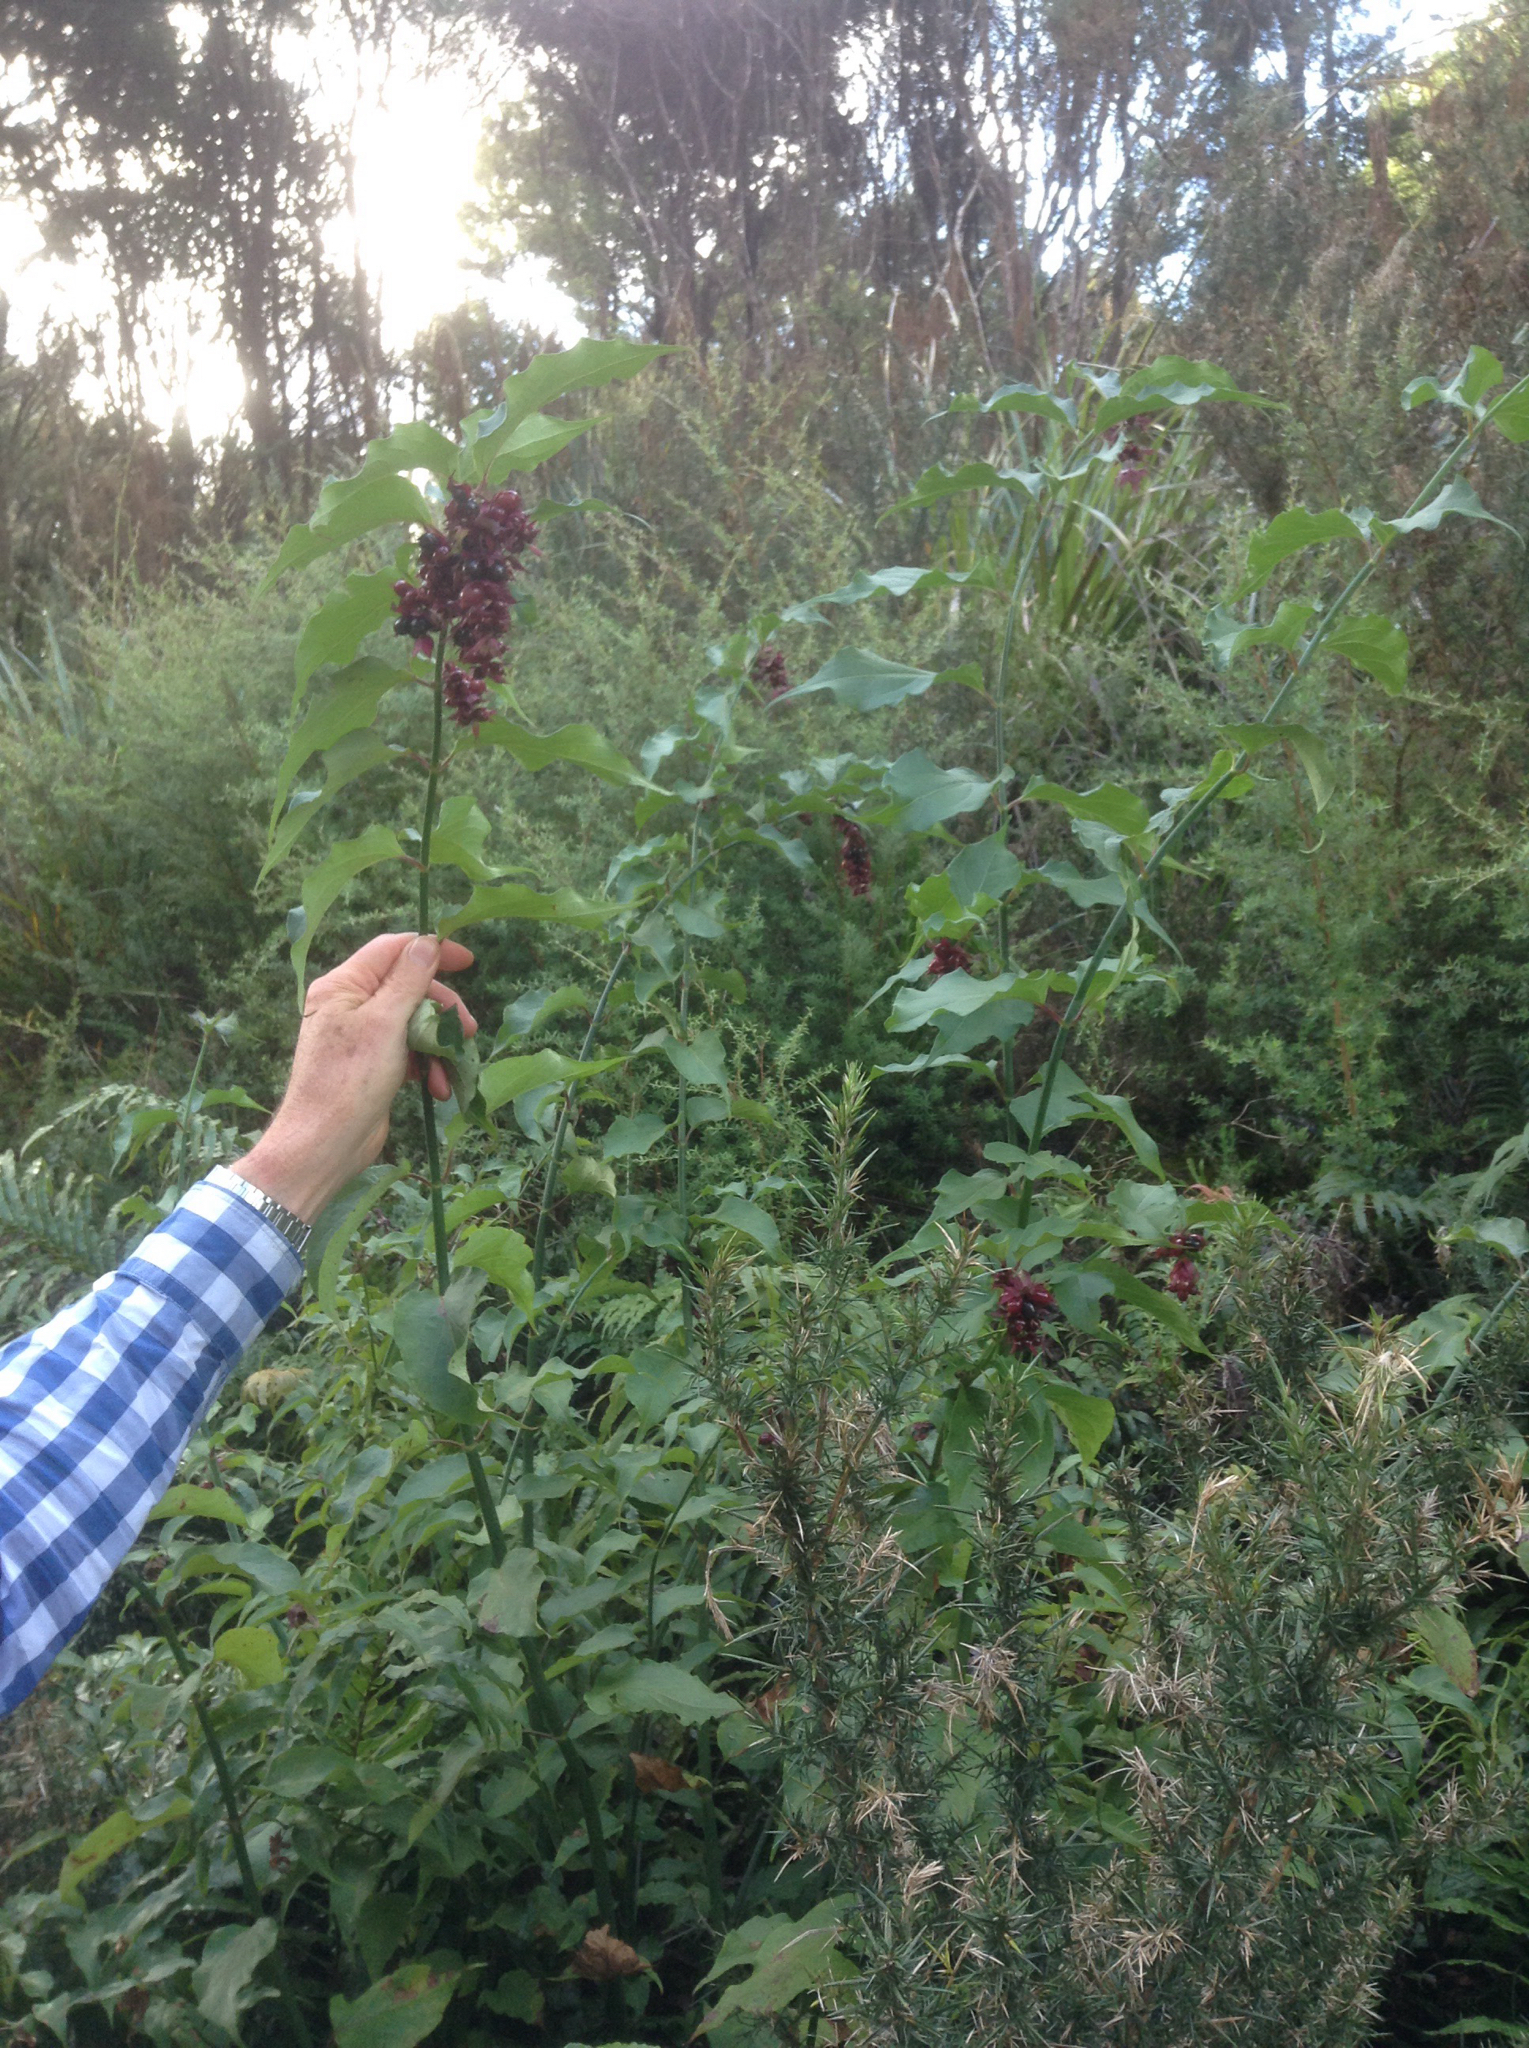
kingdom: Plantae
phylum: Tracheophyta
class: Magnoliopsida
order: Dipsacales
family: Caprifoliaceae
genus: Leycesteria
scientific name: Leycesteria formosa
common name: Himalayan honeysuckle
